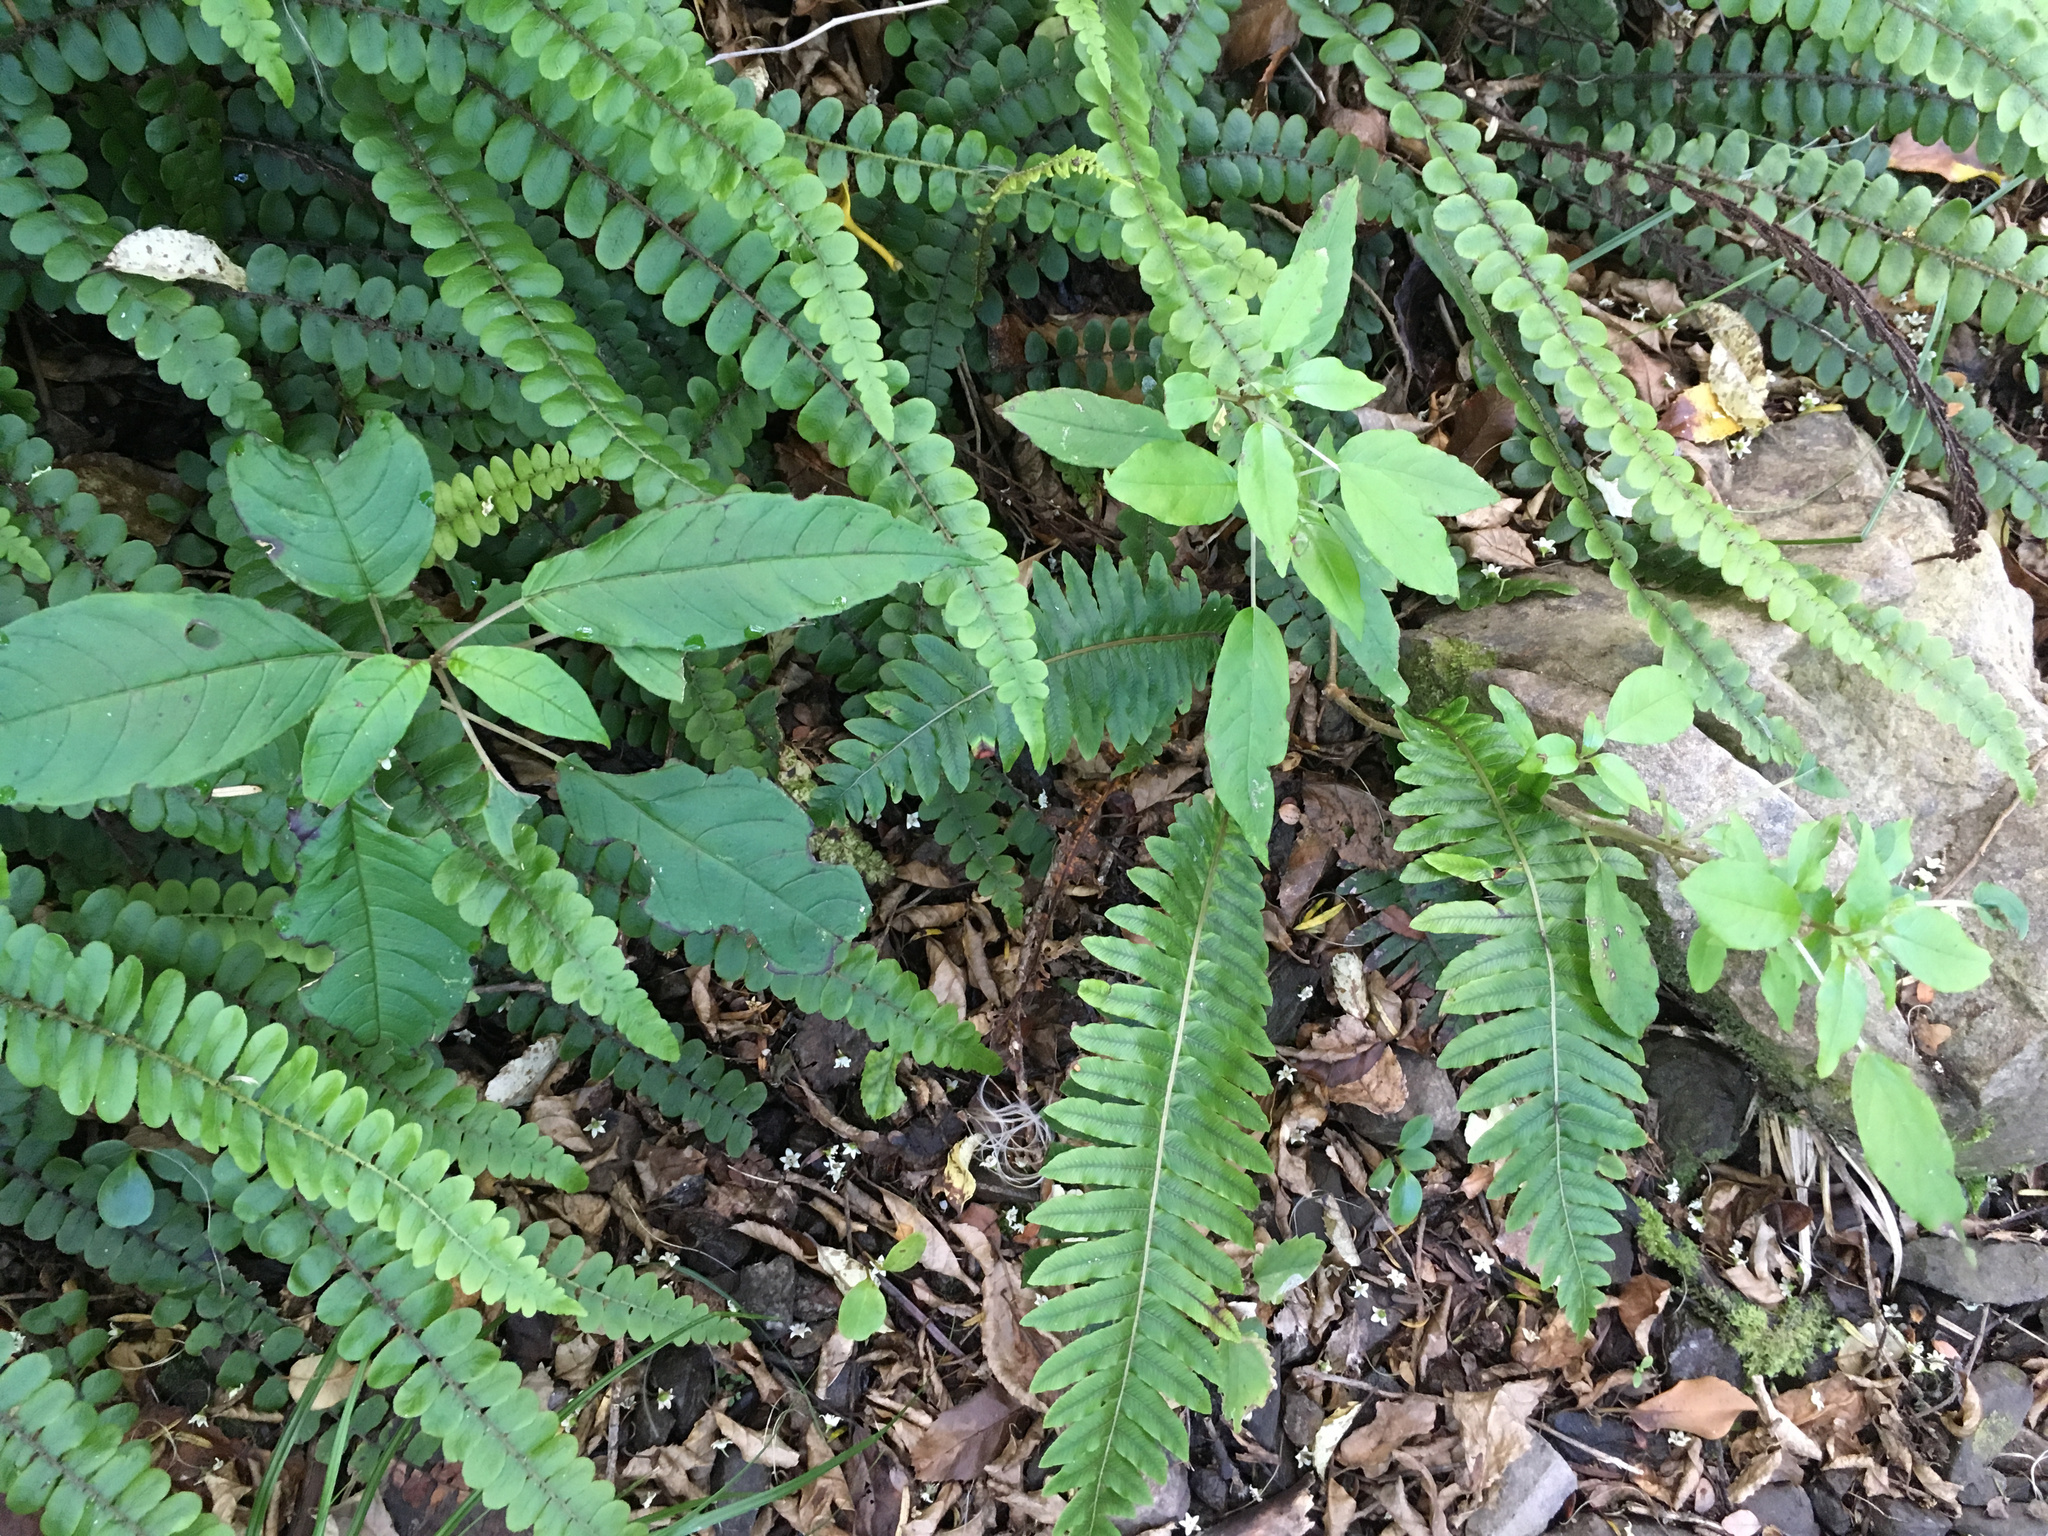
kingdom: Plantae
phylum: Tracheophyta
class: Magnoliopsida
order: Myrtales
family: Onagraceae
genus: Fuchsia
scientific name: Fuchsia excorticata
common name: Tree fuchsia
